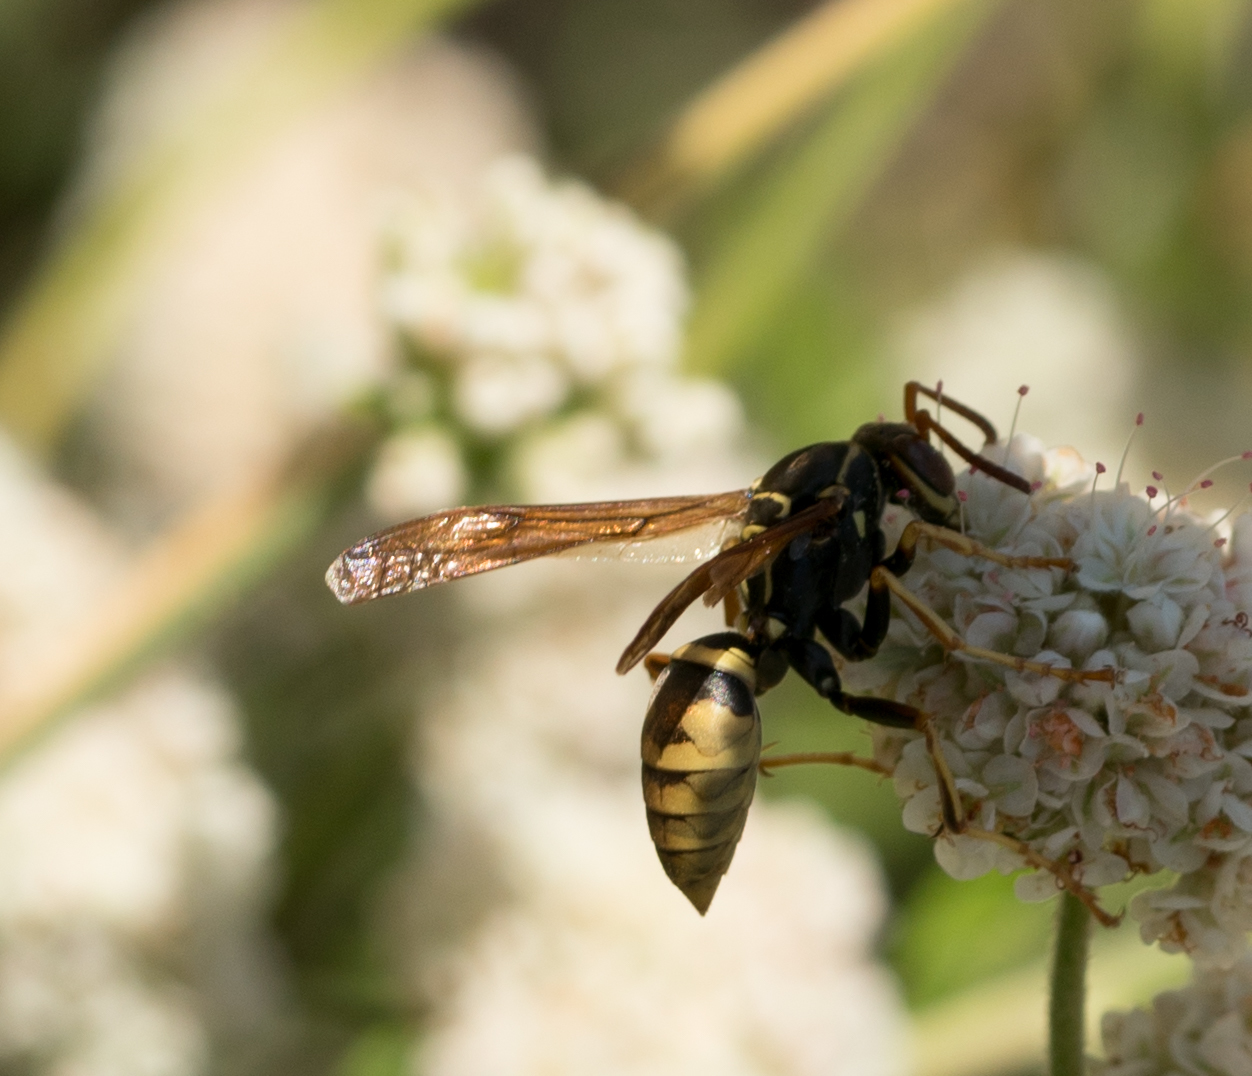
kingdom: Animalia
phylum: Arthropoda
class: Insecta
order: Hymenoptera
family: Eumenidae
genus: Polistes
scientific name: Polistes aurifer
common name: Paper wasp
